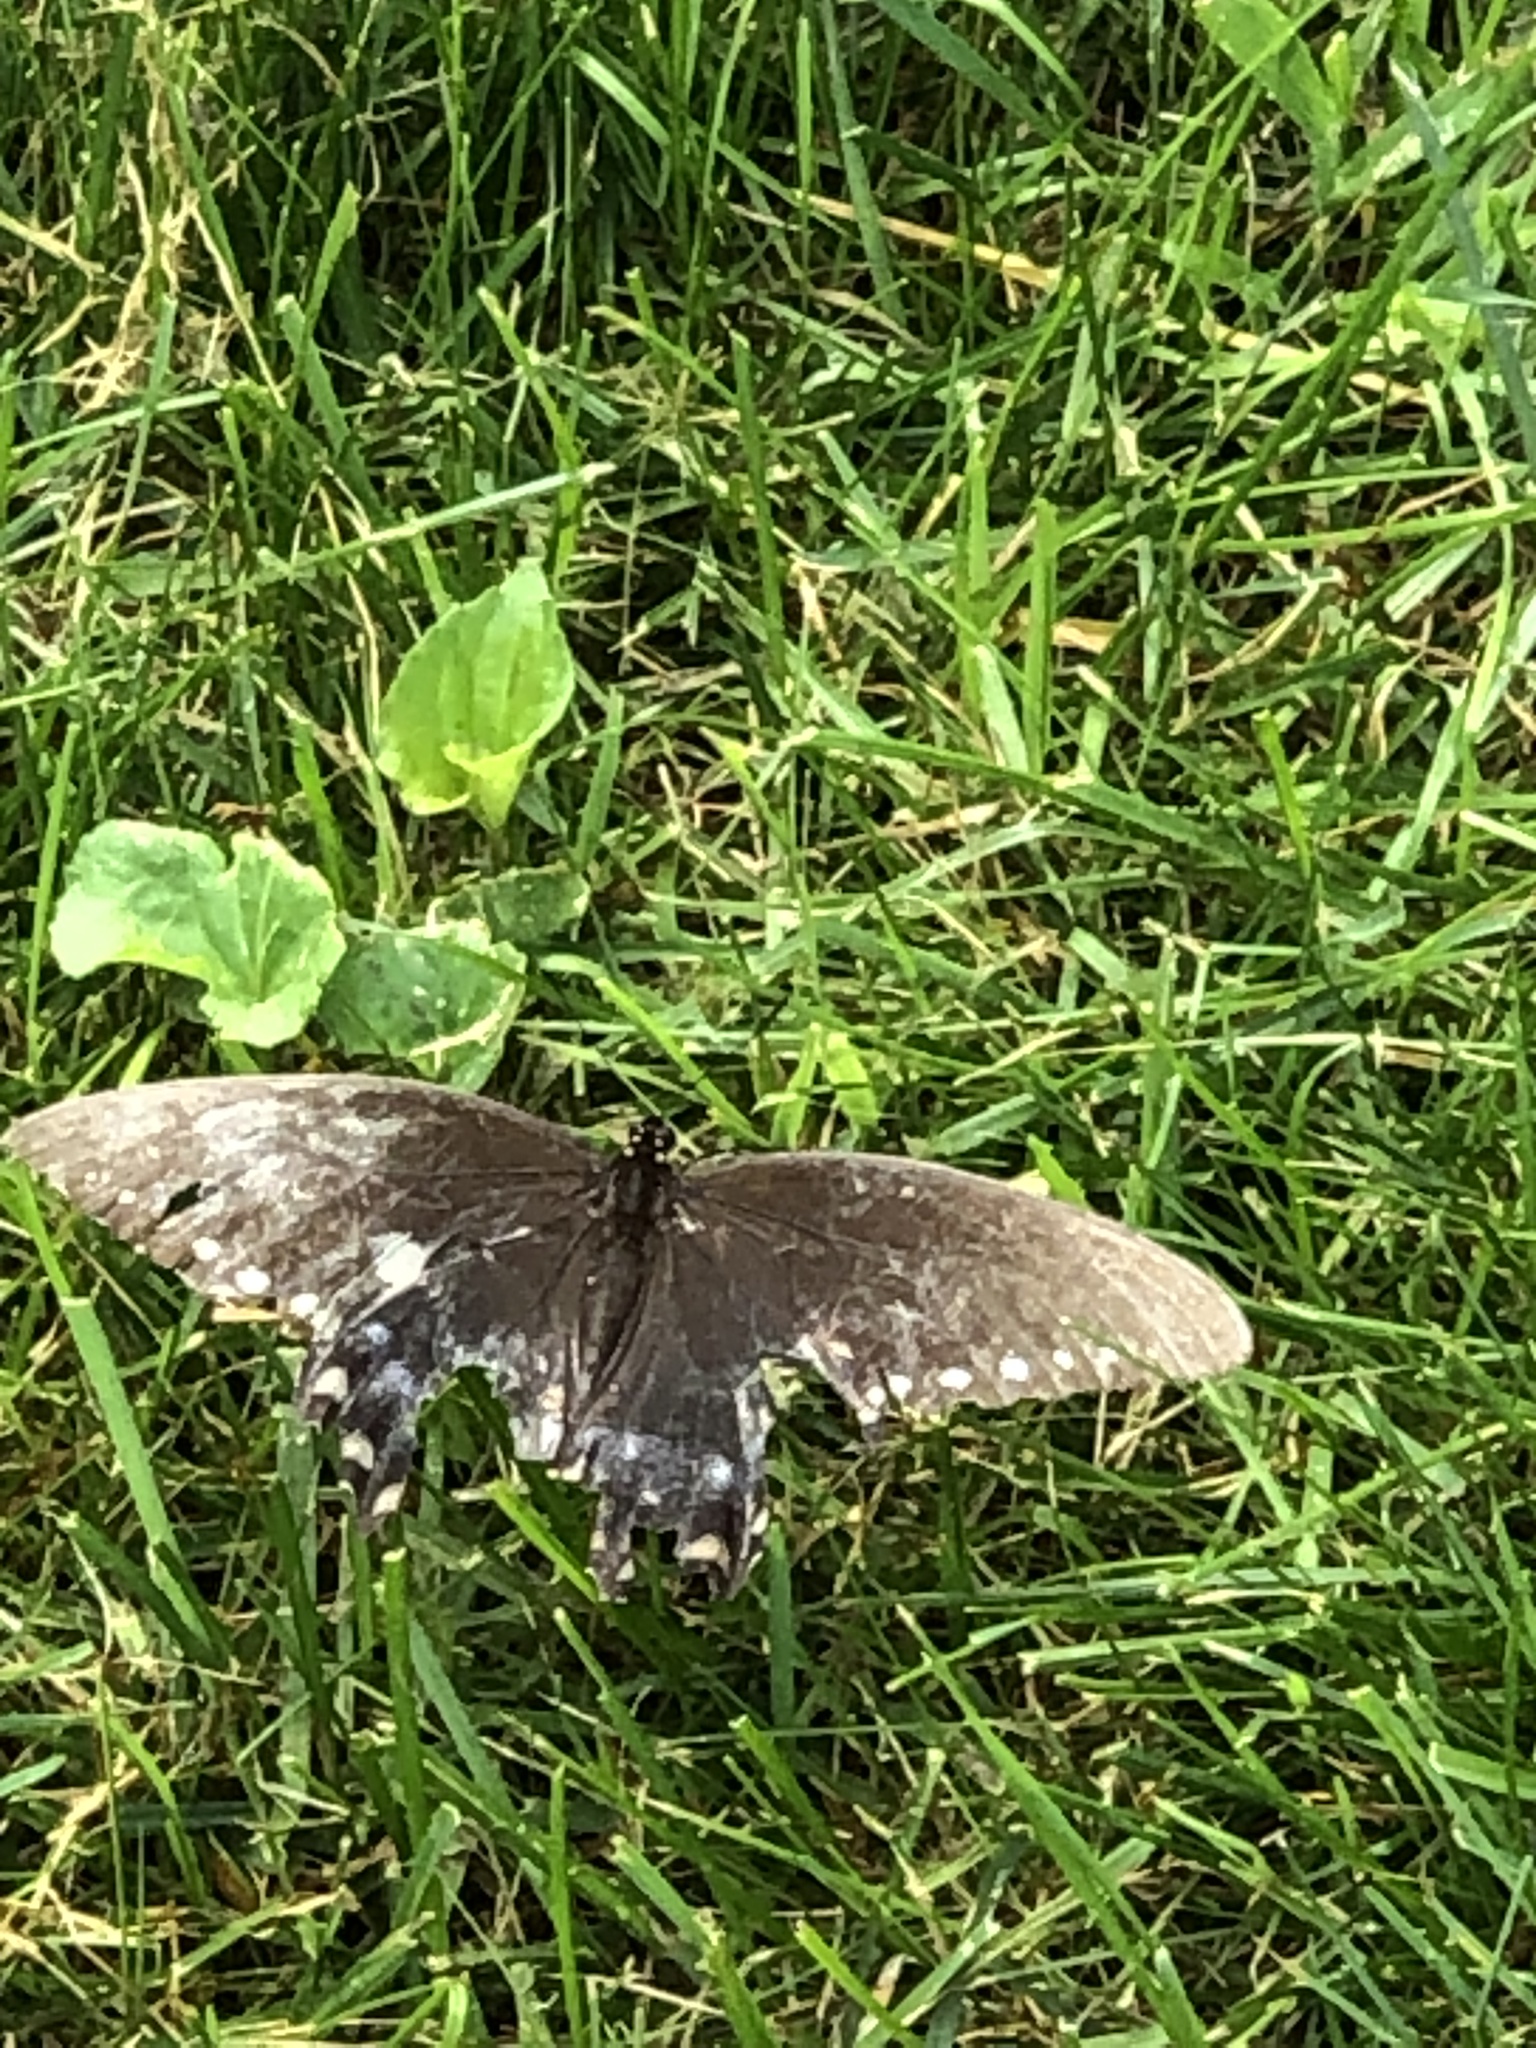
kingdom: Animalia
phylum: Arthropoda
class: Insecta
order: Lepidoptera
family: Papilionidae
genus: Papilio
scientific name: Papilio troilus
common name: Spicebush swallowtail
